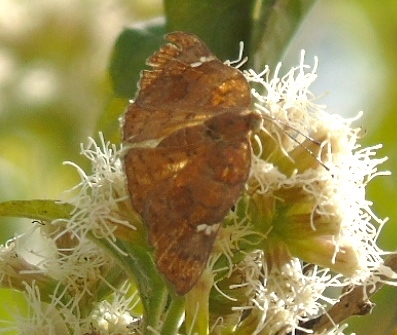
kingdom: Animalia
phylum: Arthropoda
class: Insecta
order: Lepidoptera
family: Riodinidae
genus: Curvie
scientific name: Curvie emesia
